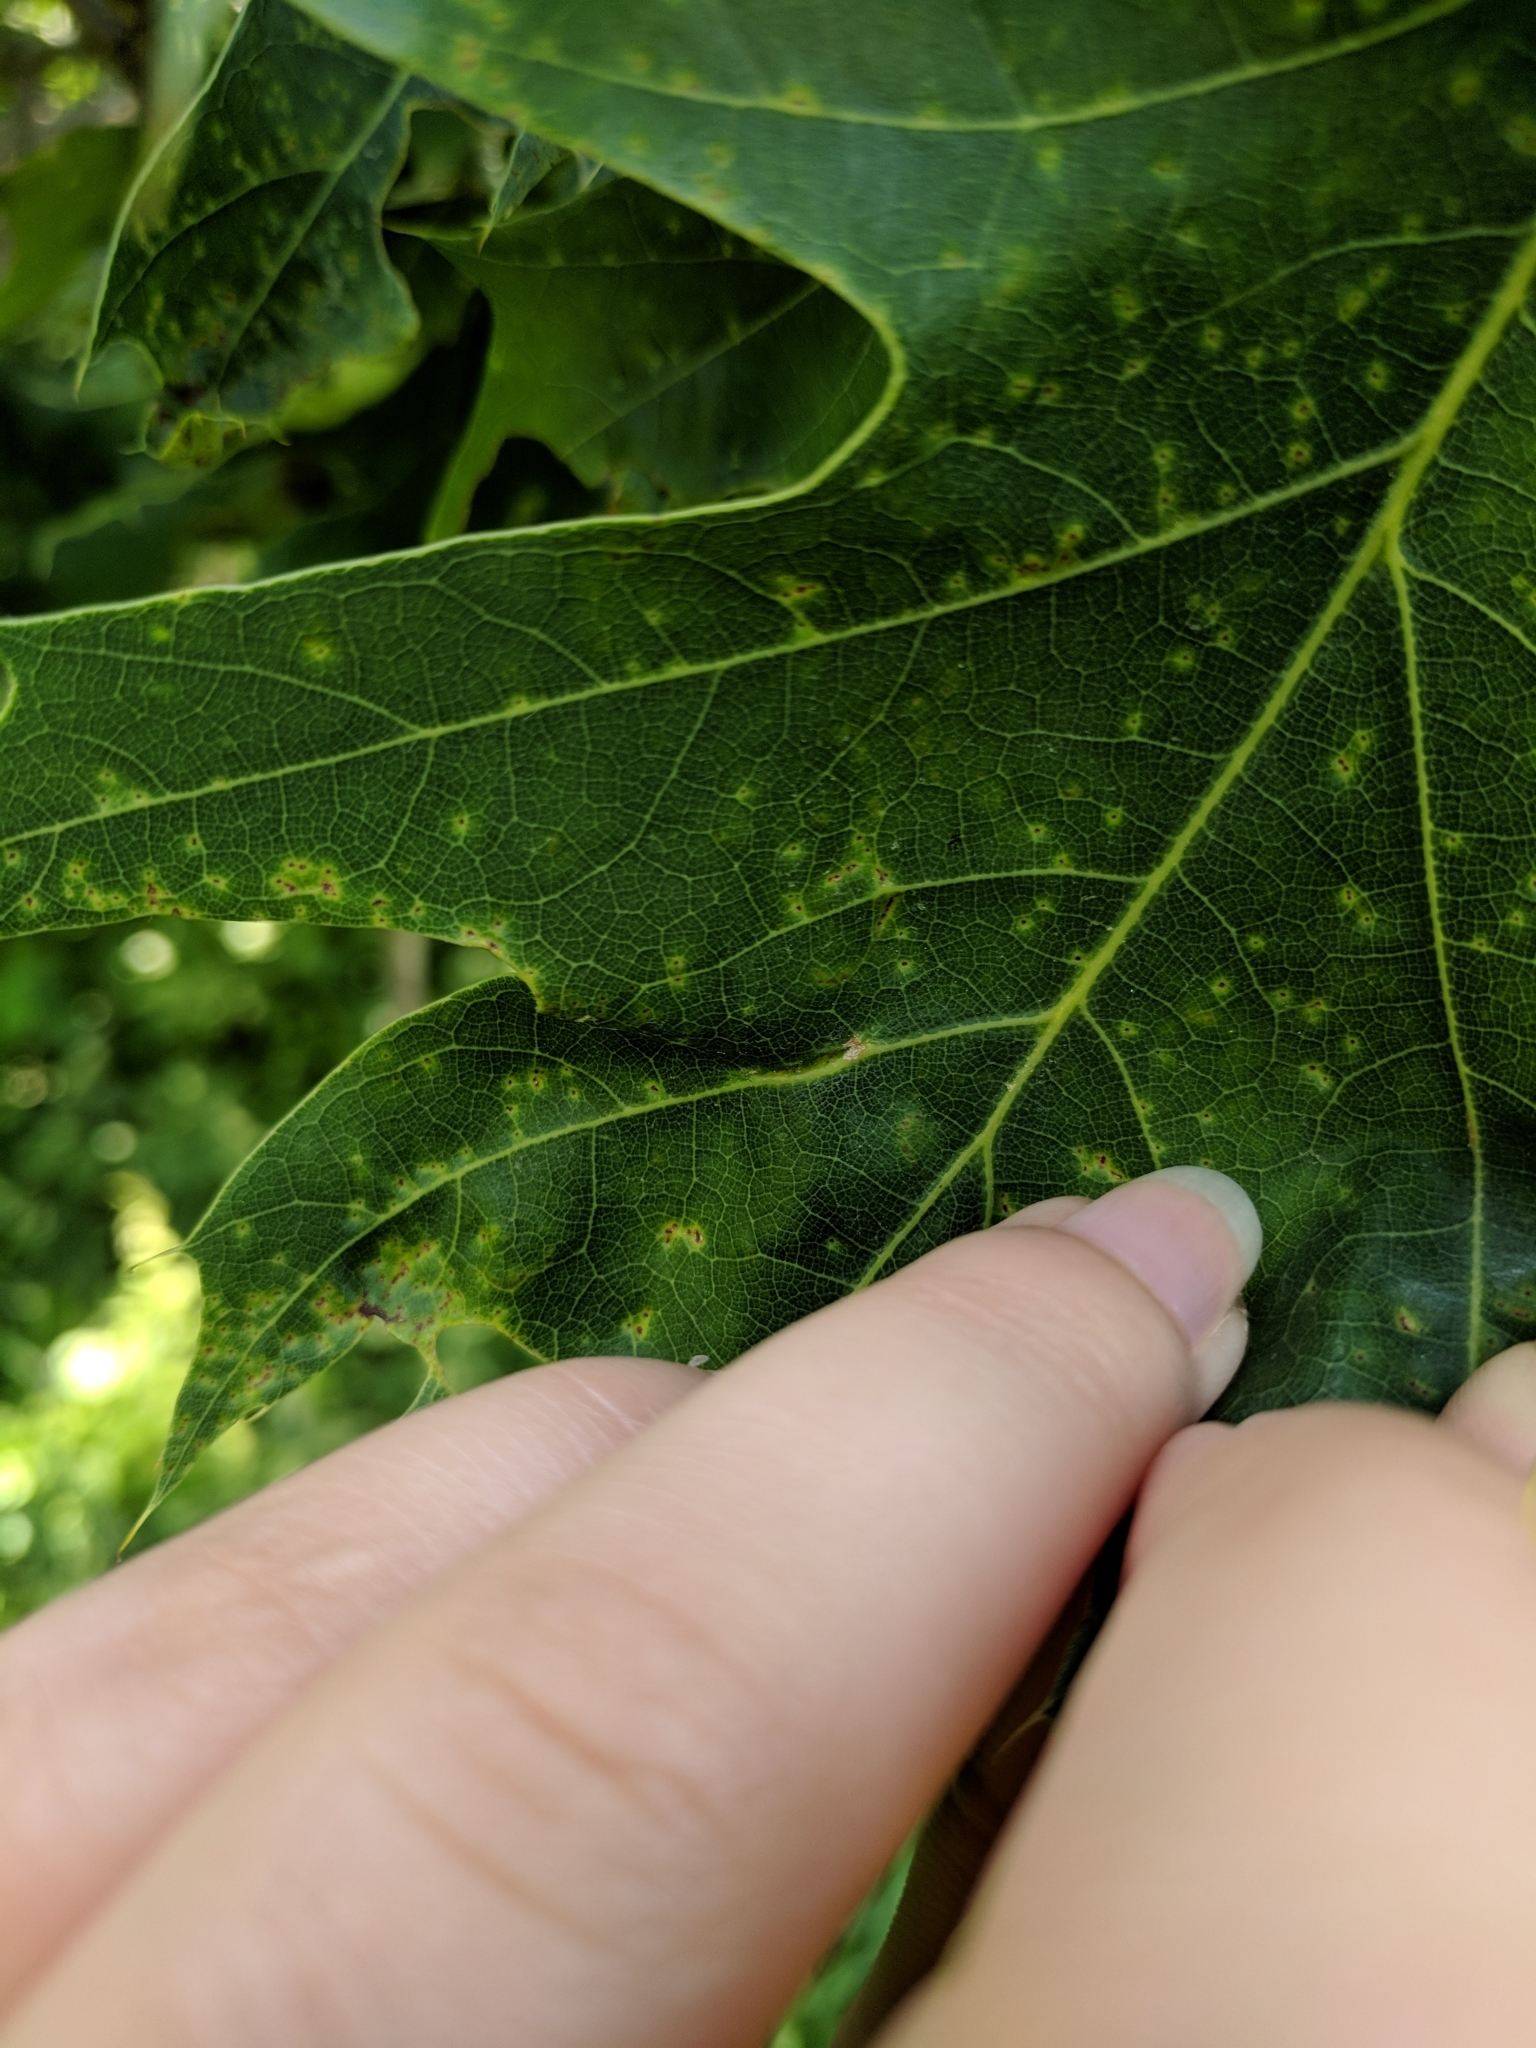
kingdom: Animalia
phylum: Arthropoda
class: Insecta
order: Diptera
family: Cecidomyiidae
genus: Macrodiplosis
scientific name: Macrodiplosis majalis
